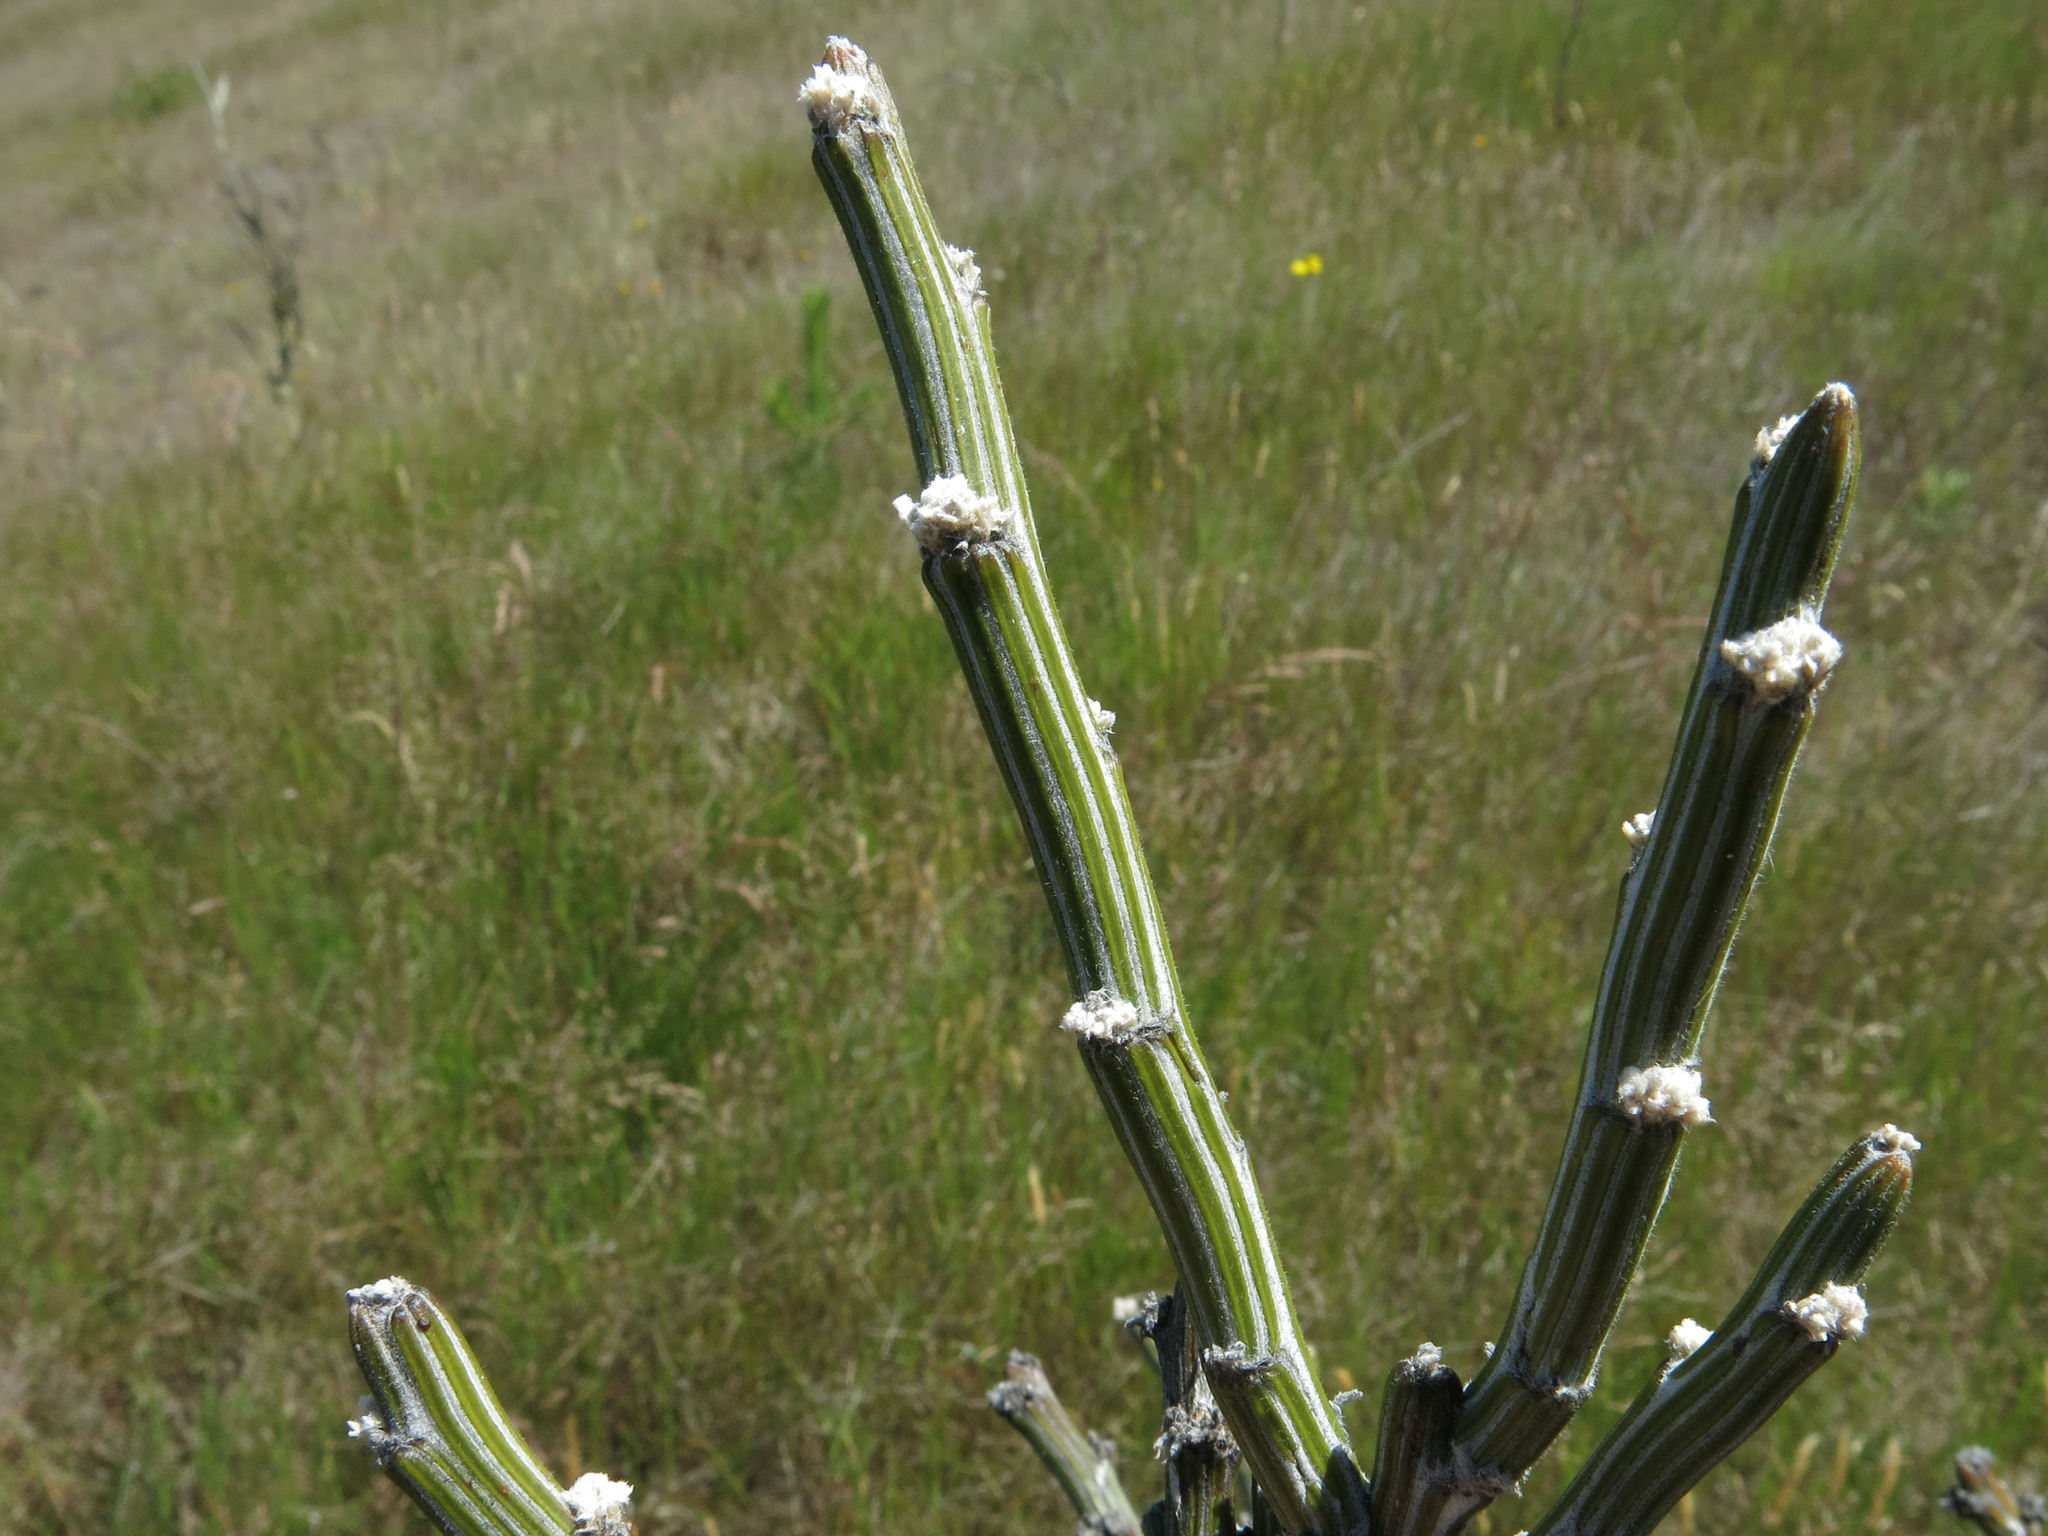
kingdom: Plantae
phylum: Tracheophyta
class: Magnoliopsida
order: Fabales
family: Fabaceae
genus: Carmichaelia
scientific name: Carmichaelia crassicaulis
